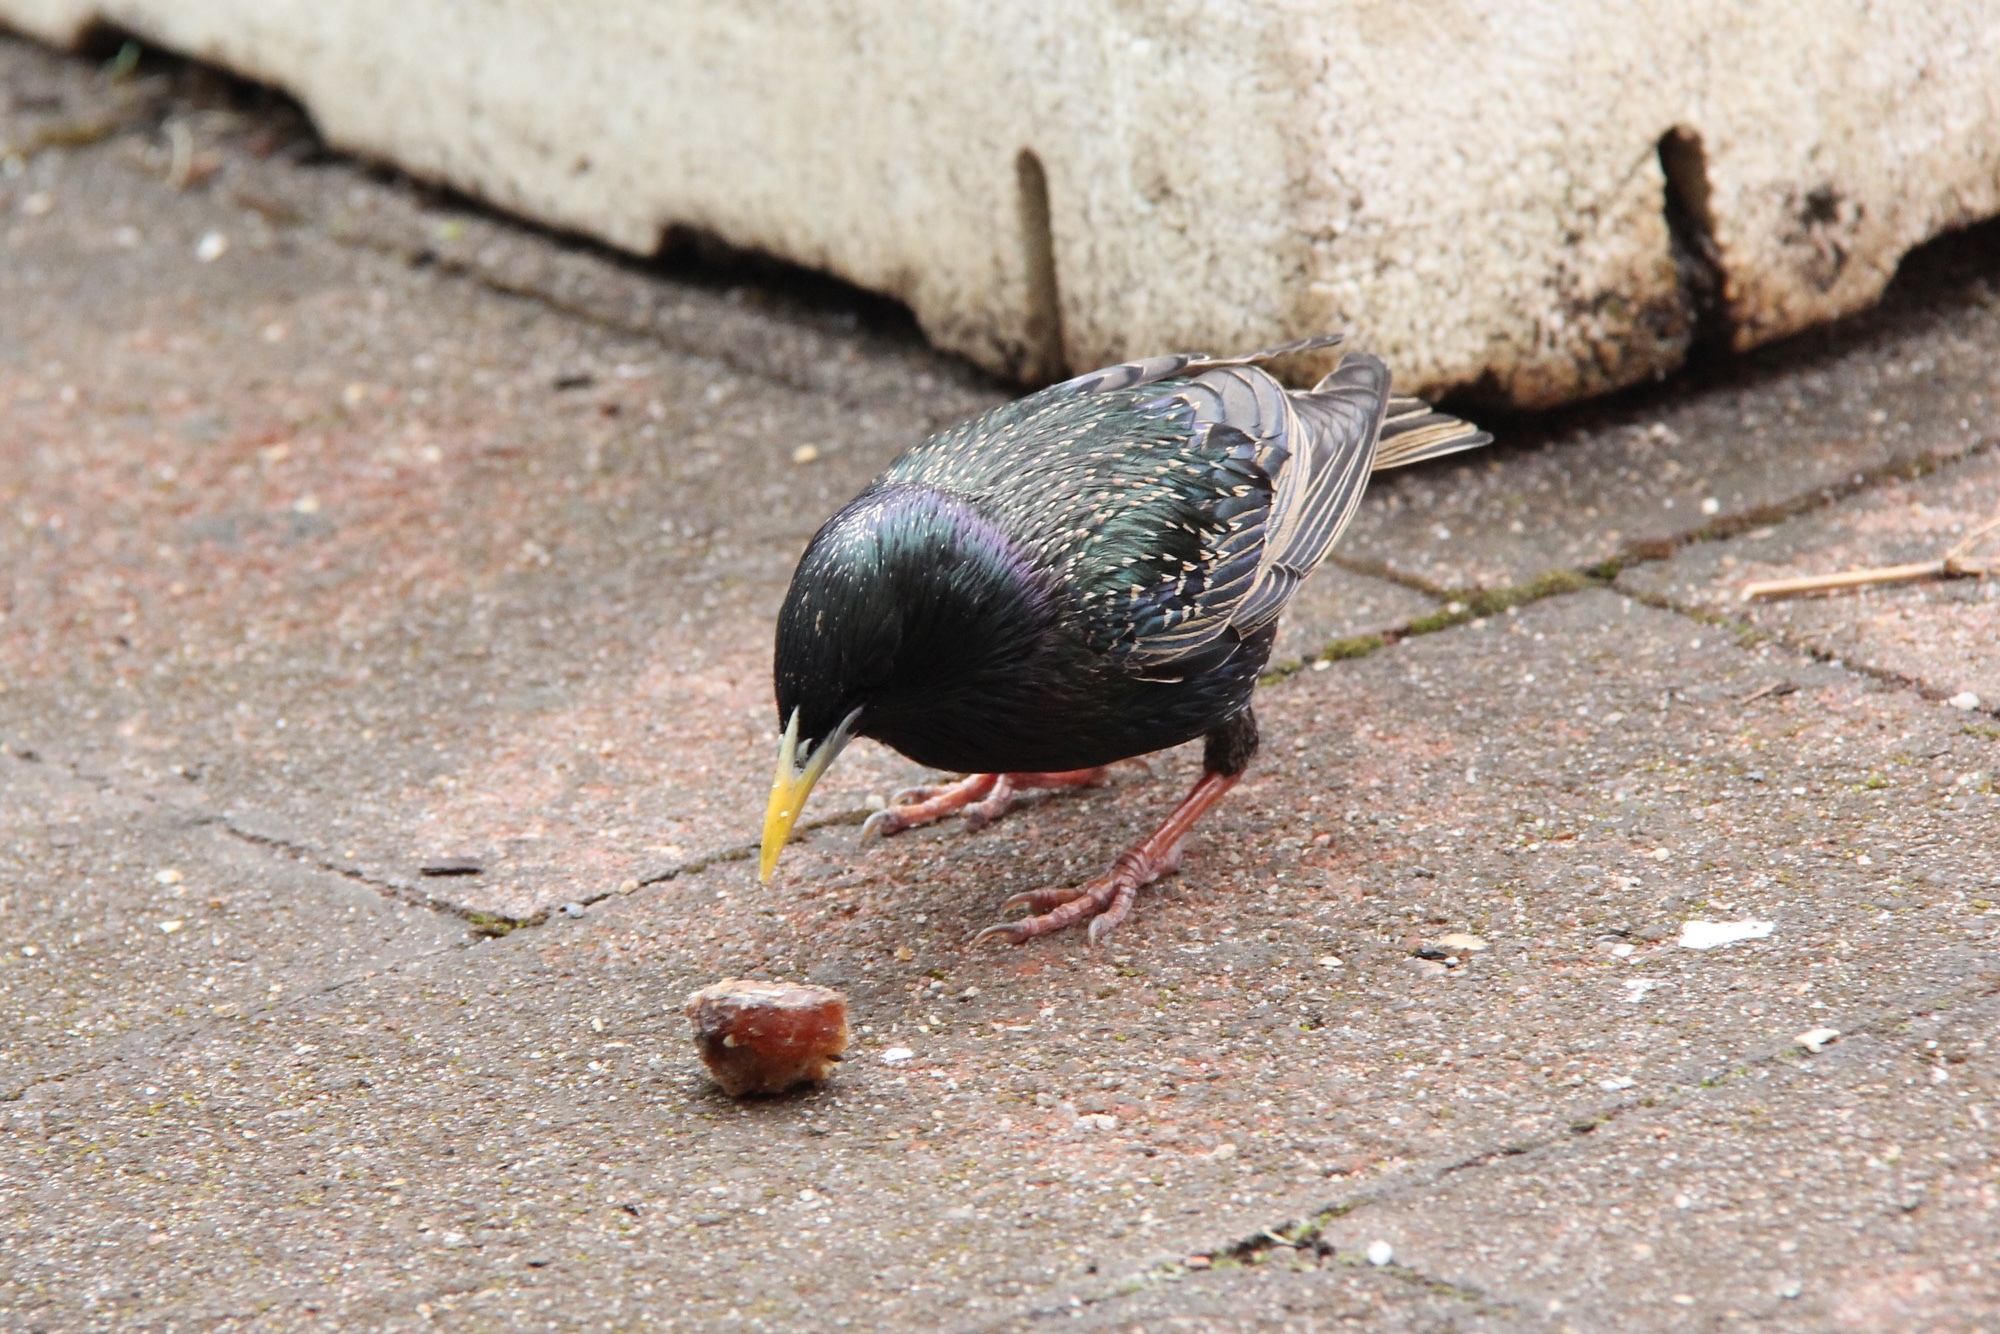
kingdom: Animalia
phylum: Chordata
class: Aves
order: Passeriformes
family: Sturnidae
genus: Sturnus
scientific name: Sturnus vulgaris
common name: Common starling
